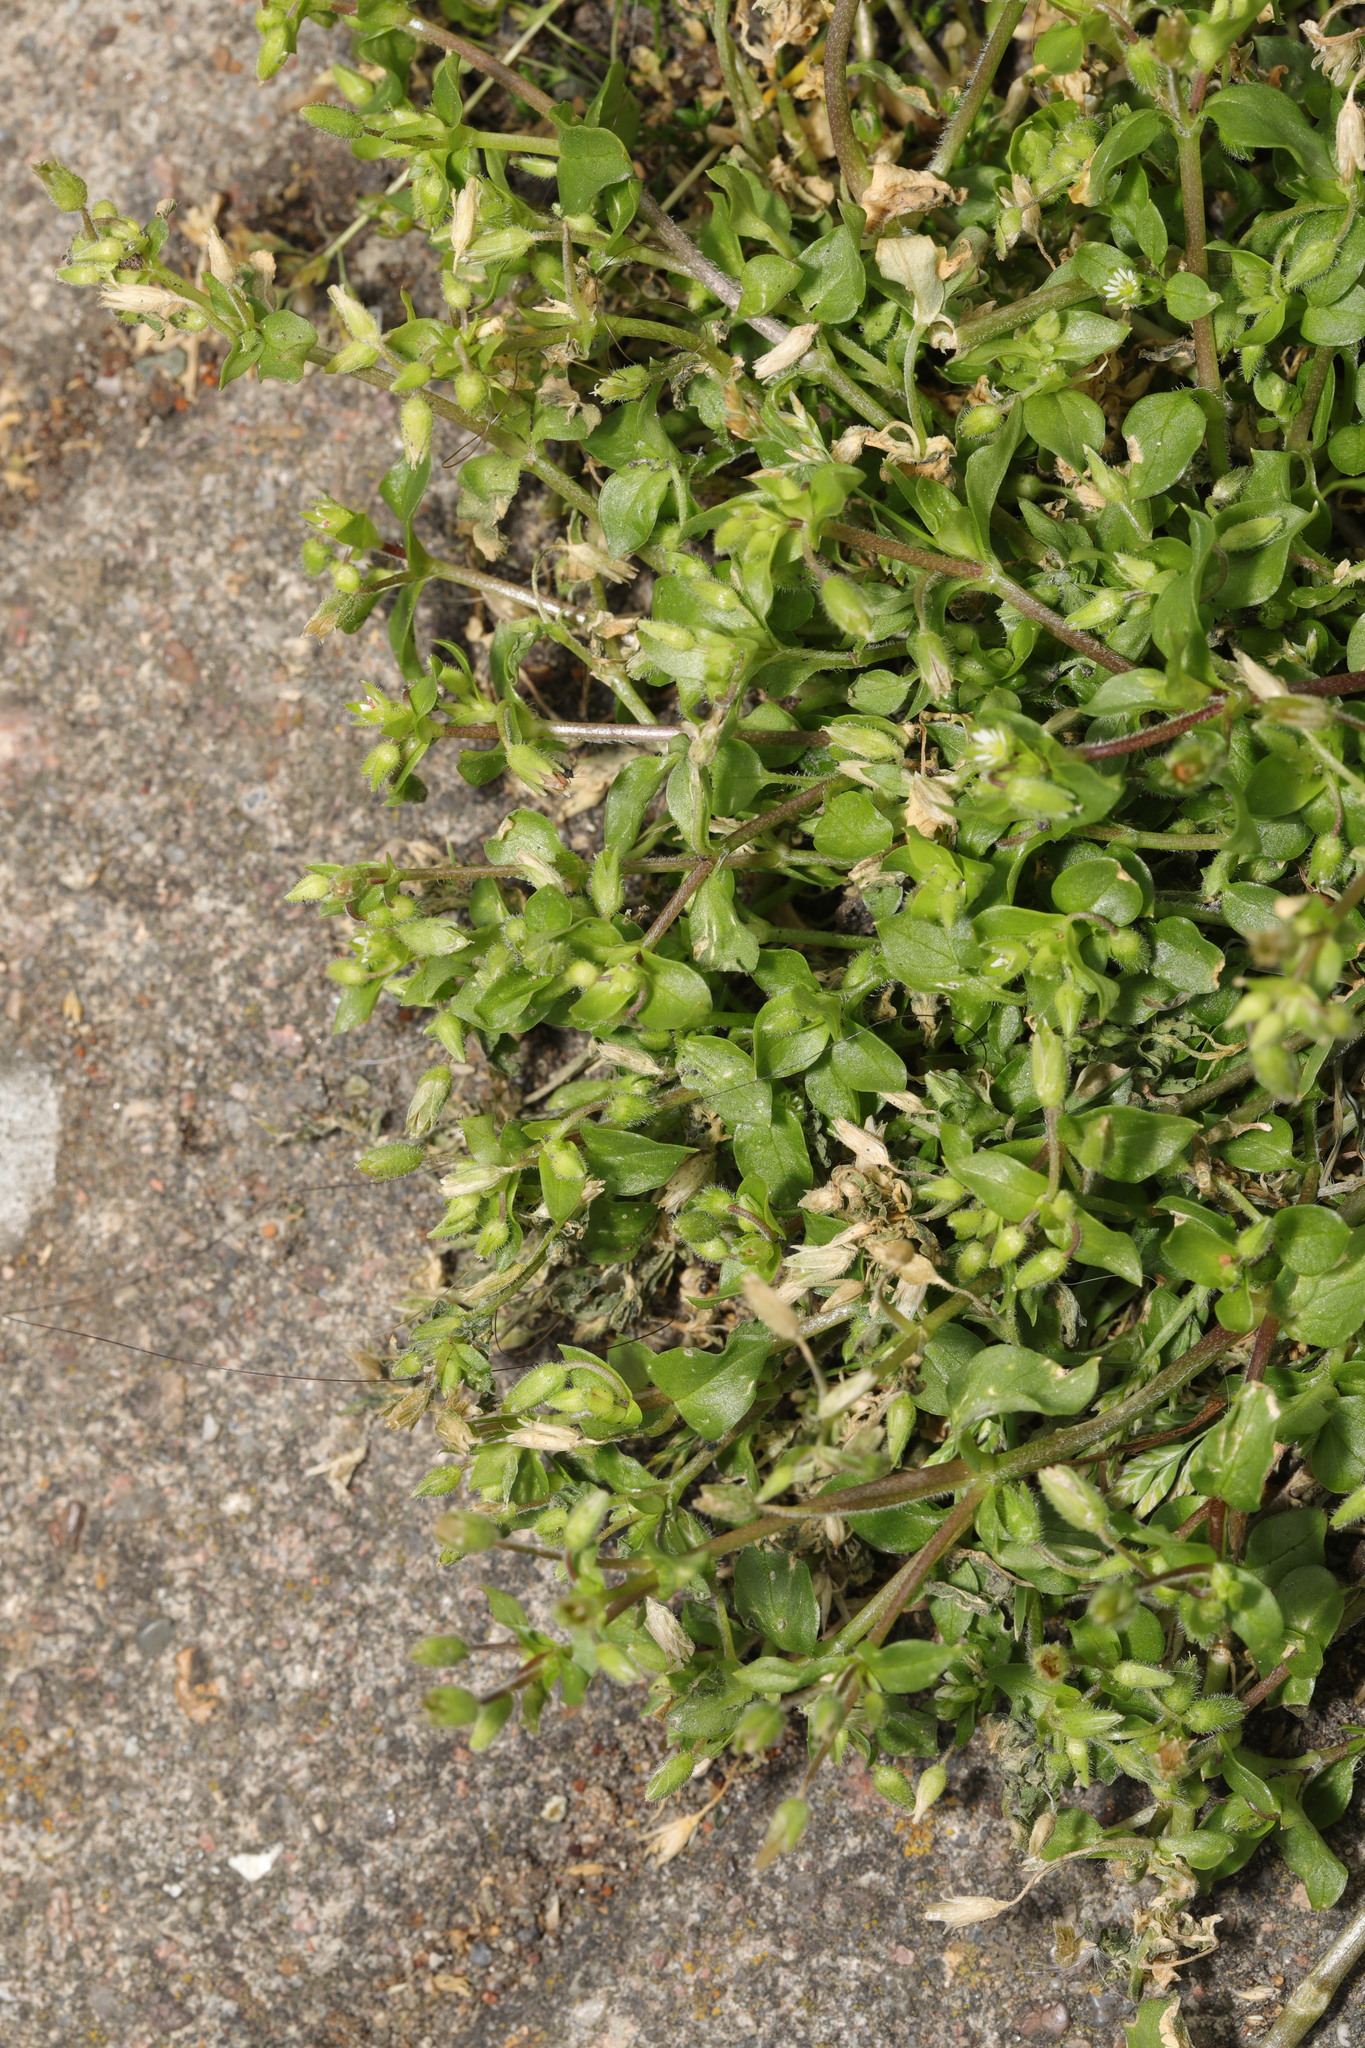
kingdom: Plantae
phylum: Tracheophyta
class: Magnoliopsida
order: Caryophyllales
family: Caryophyllaceae
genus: Stellaria
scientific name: Stellaria media
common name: Common chickweed
